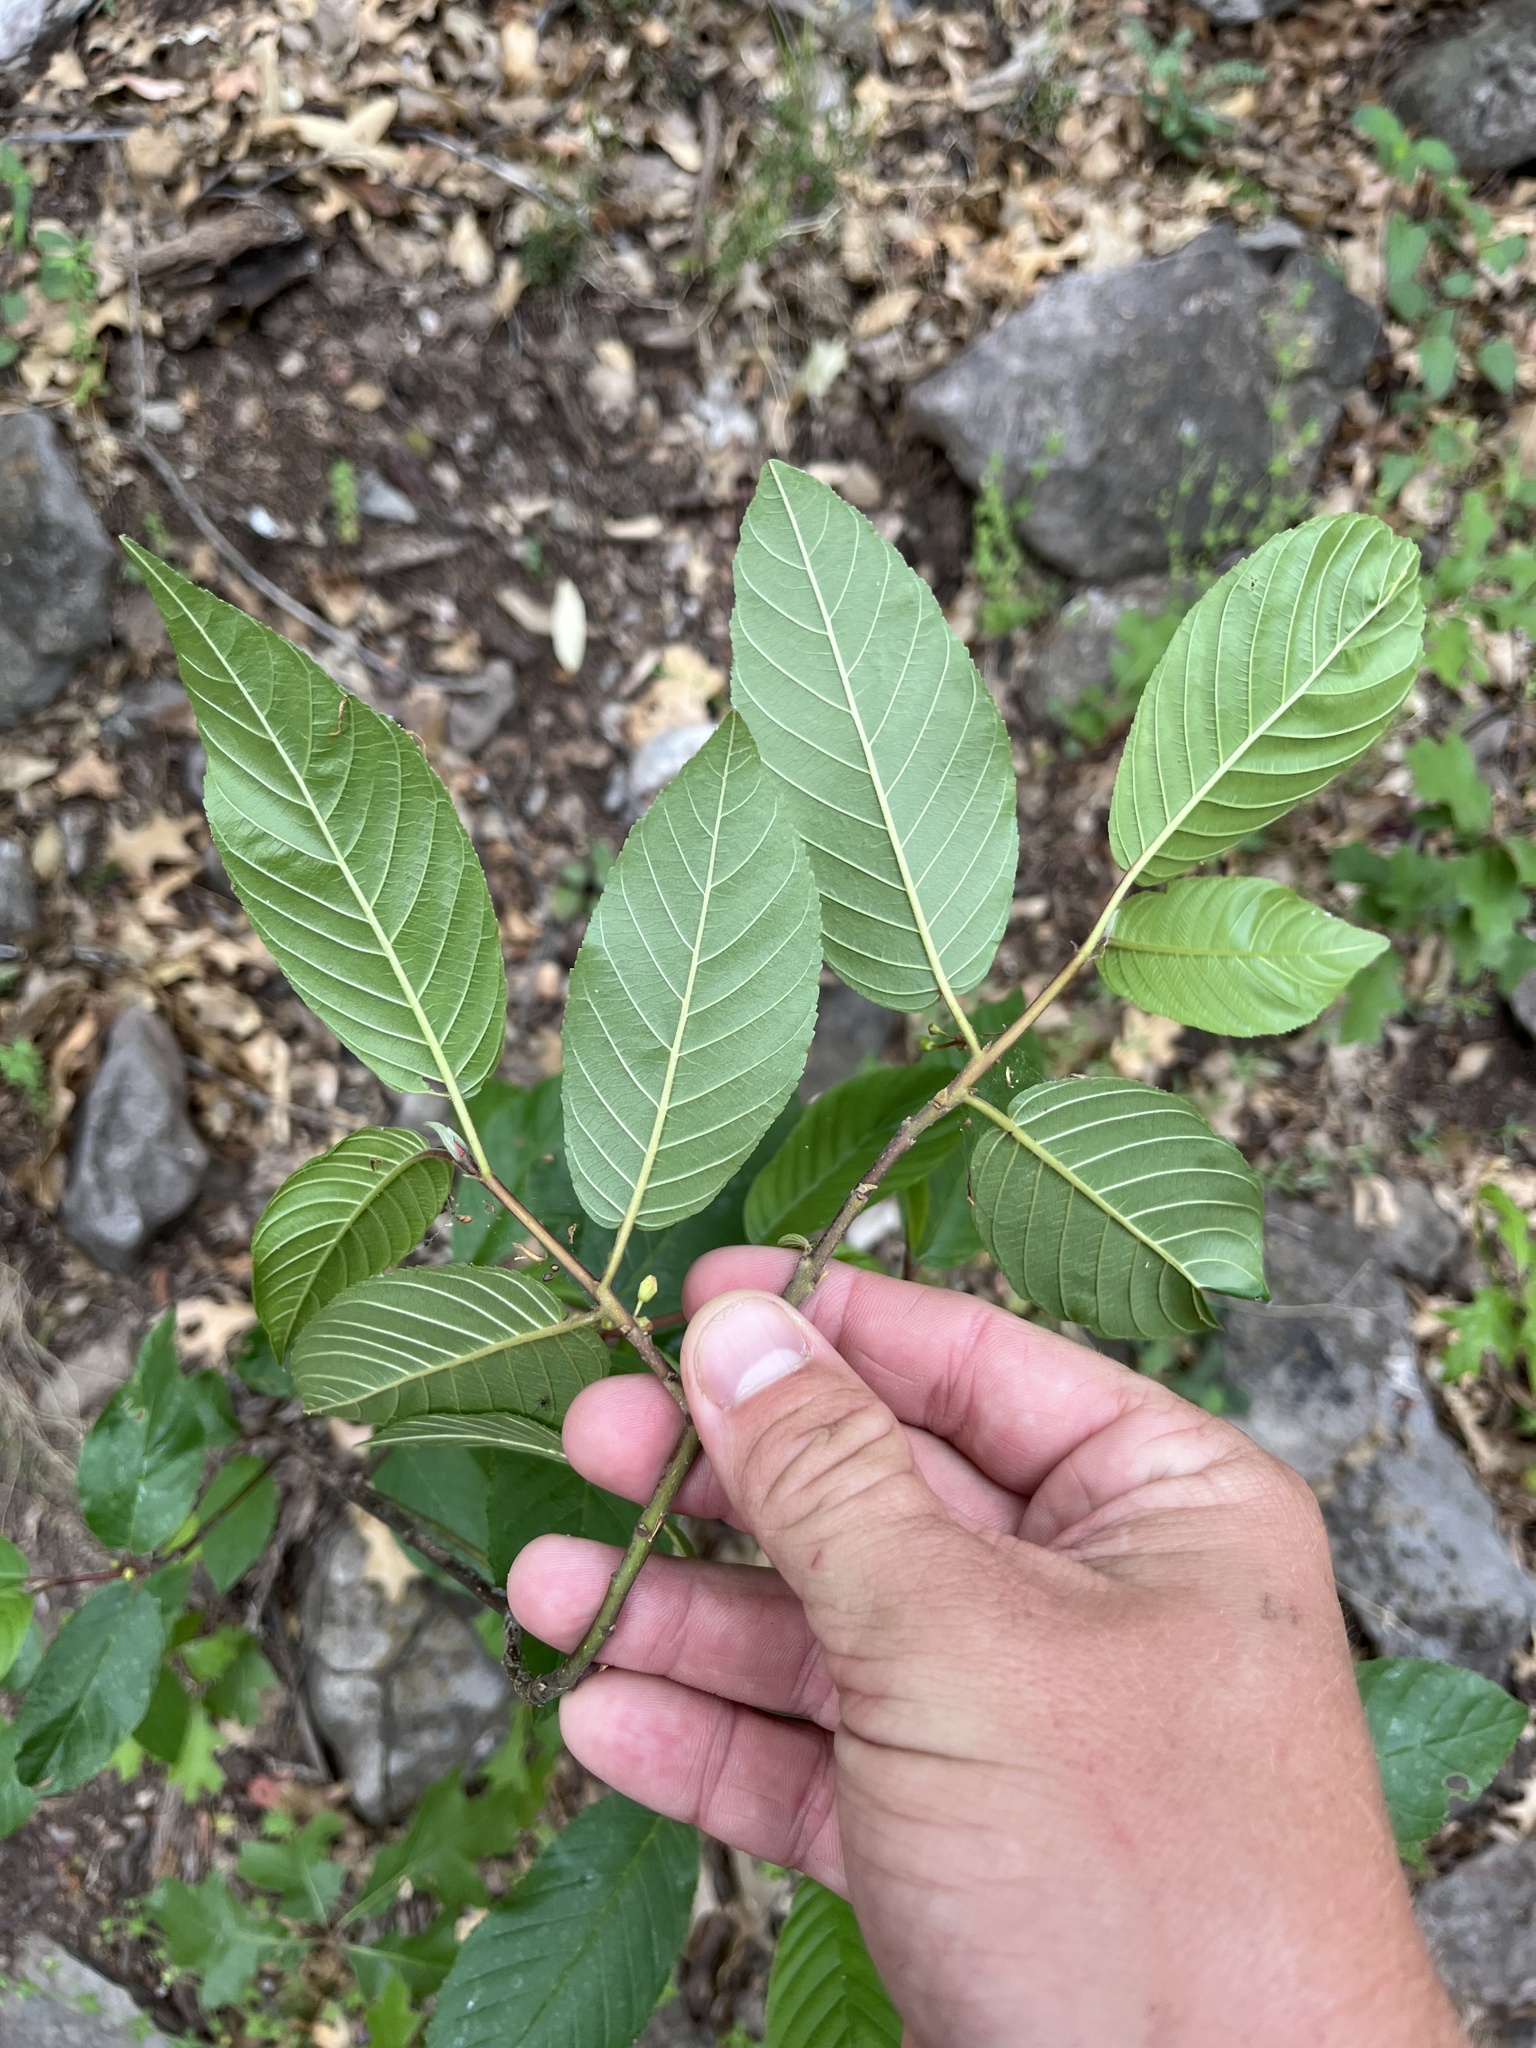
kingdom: Plantae
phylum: Tracheophyta
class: Magnoliopsida
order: Rosales
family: Rhamnaceae
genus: Frangula
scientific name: Frangula betulifolia
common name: Birch-leaf buckthorn
